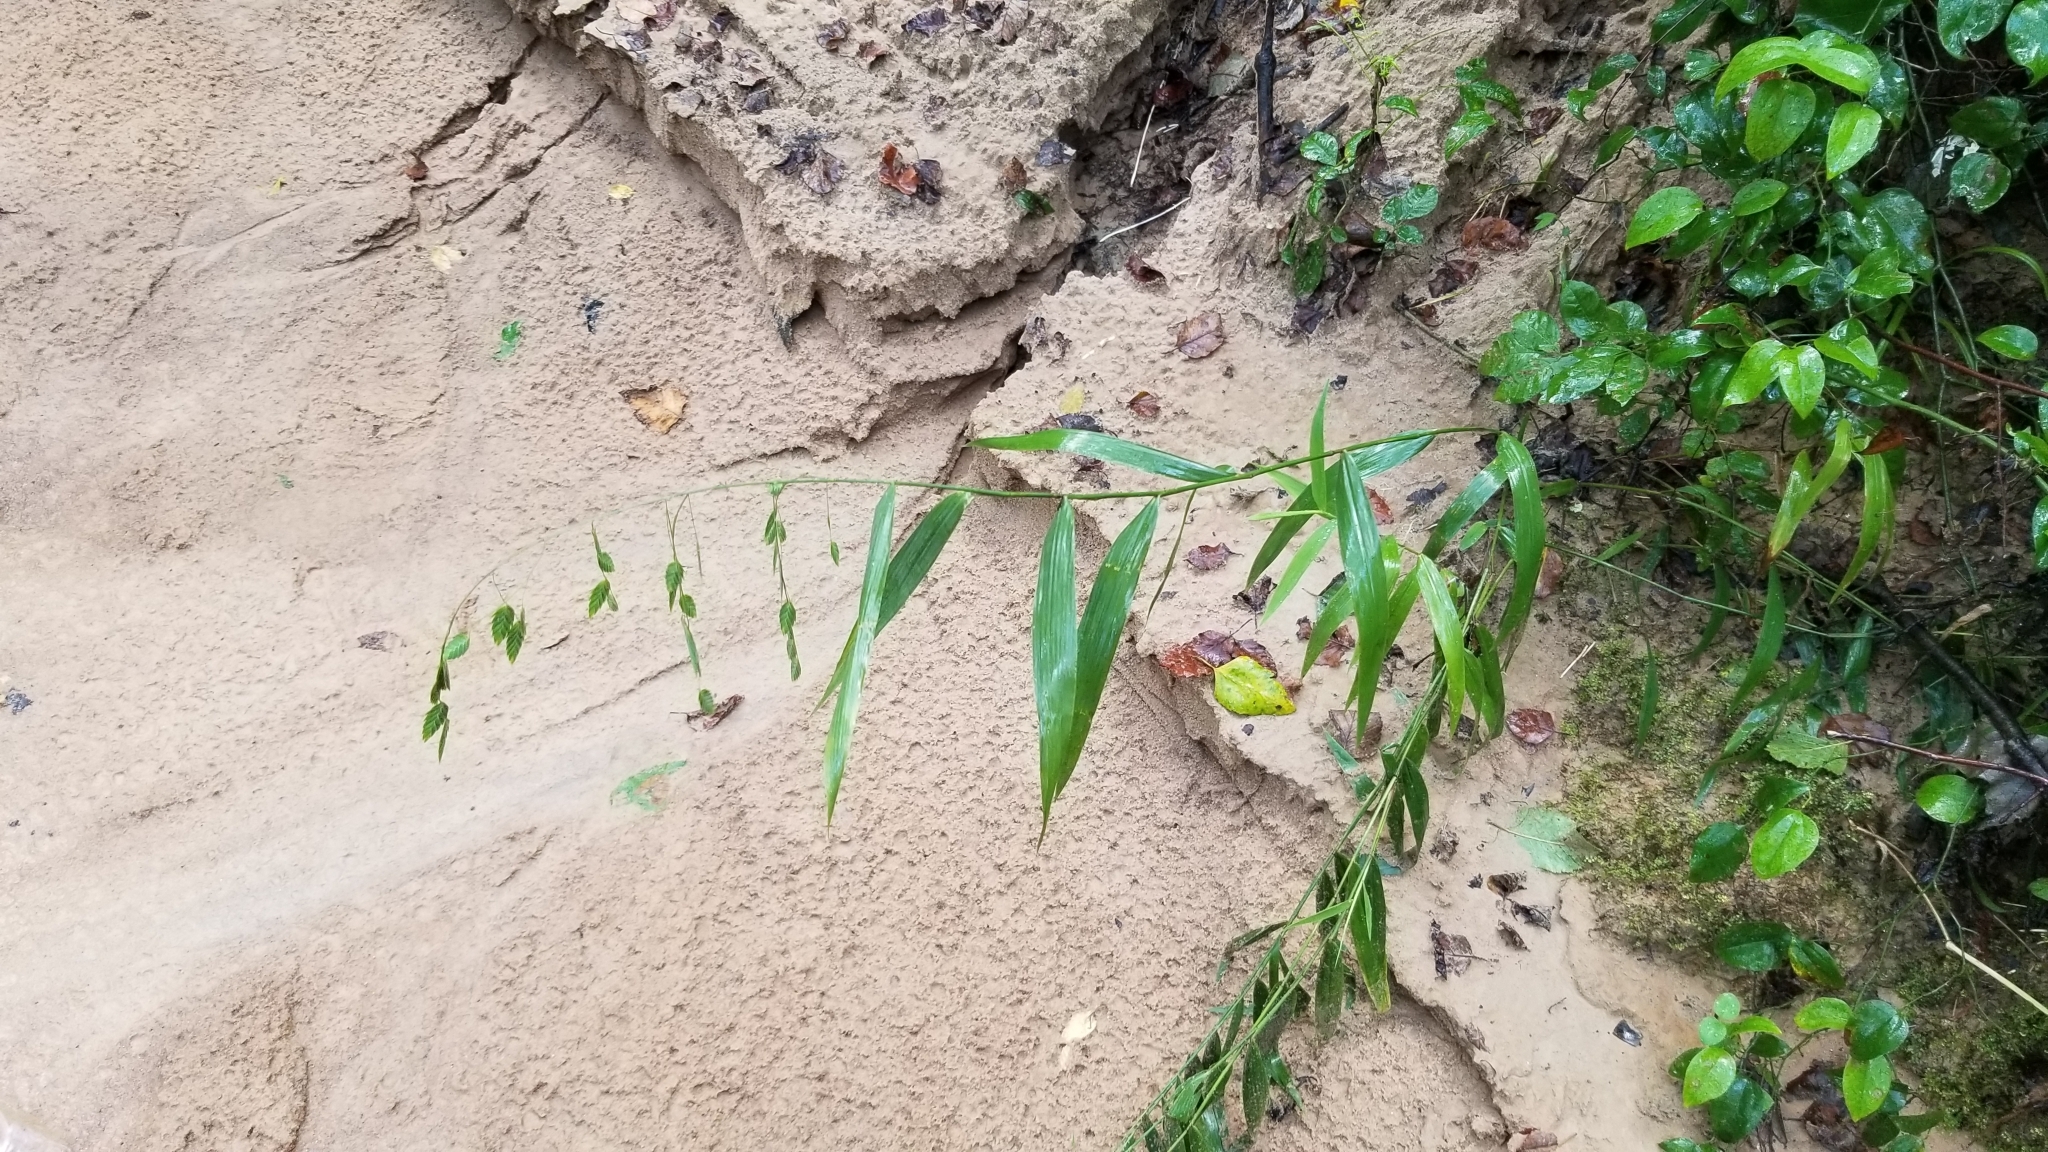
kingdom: Plantae
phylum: Tracheophyta
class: Liliopsida
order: Poales
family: Poaceae
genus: Chasmanthium
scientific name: Chasmanthium latifolium
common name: Broad-leaved chasmanthium
